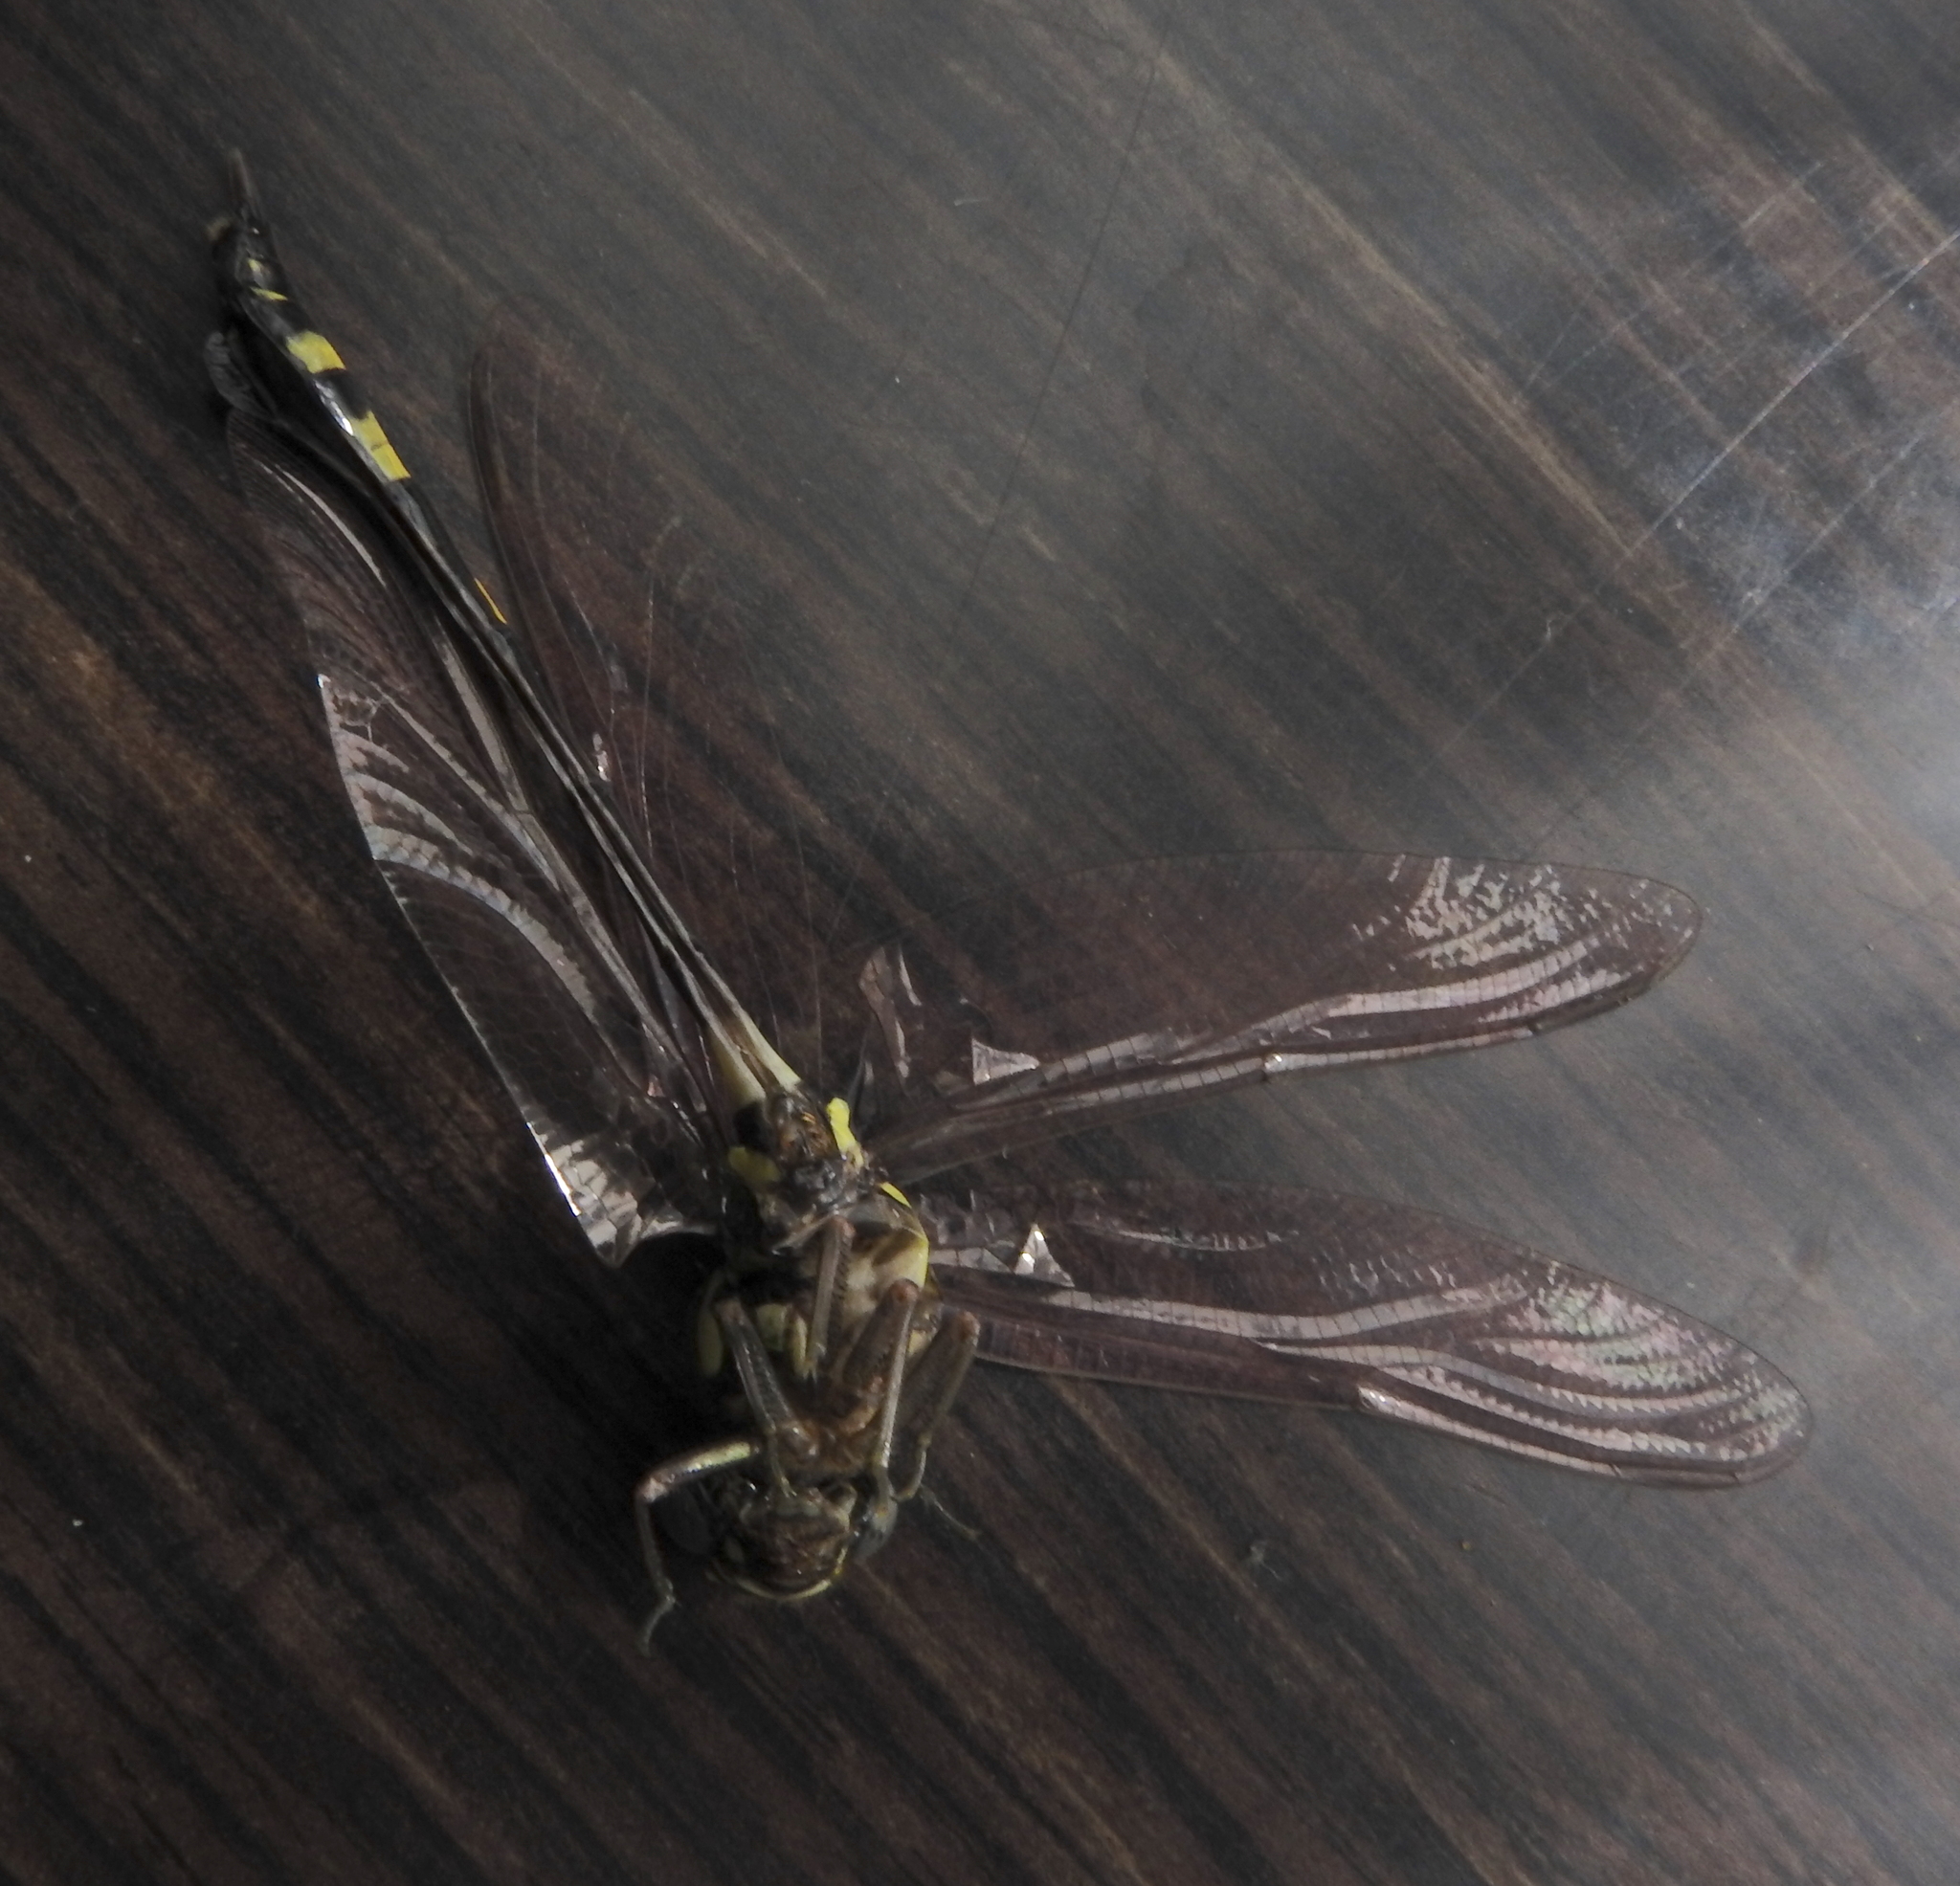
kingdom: Animalia
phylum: Arthropoda
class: Insecta
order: Odonata
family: Gomphidae
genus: Ictinogomphus
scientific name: Ictinogomphus rapax
